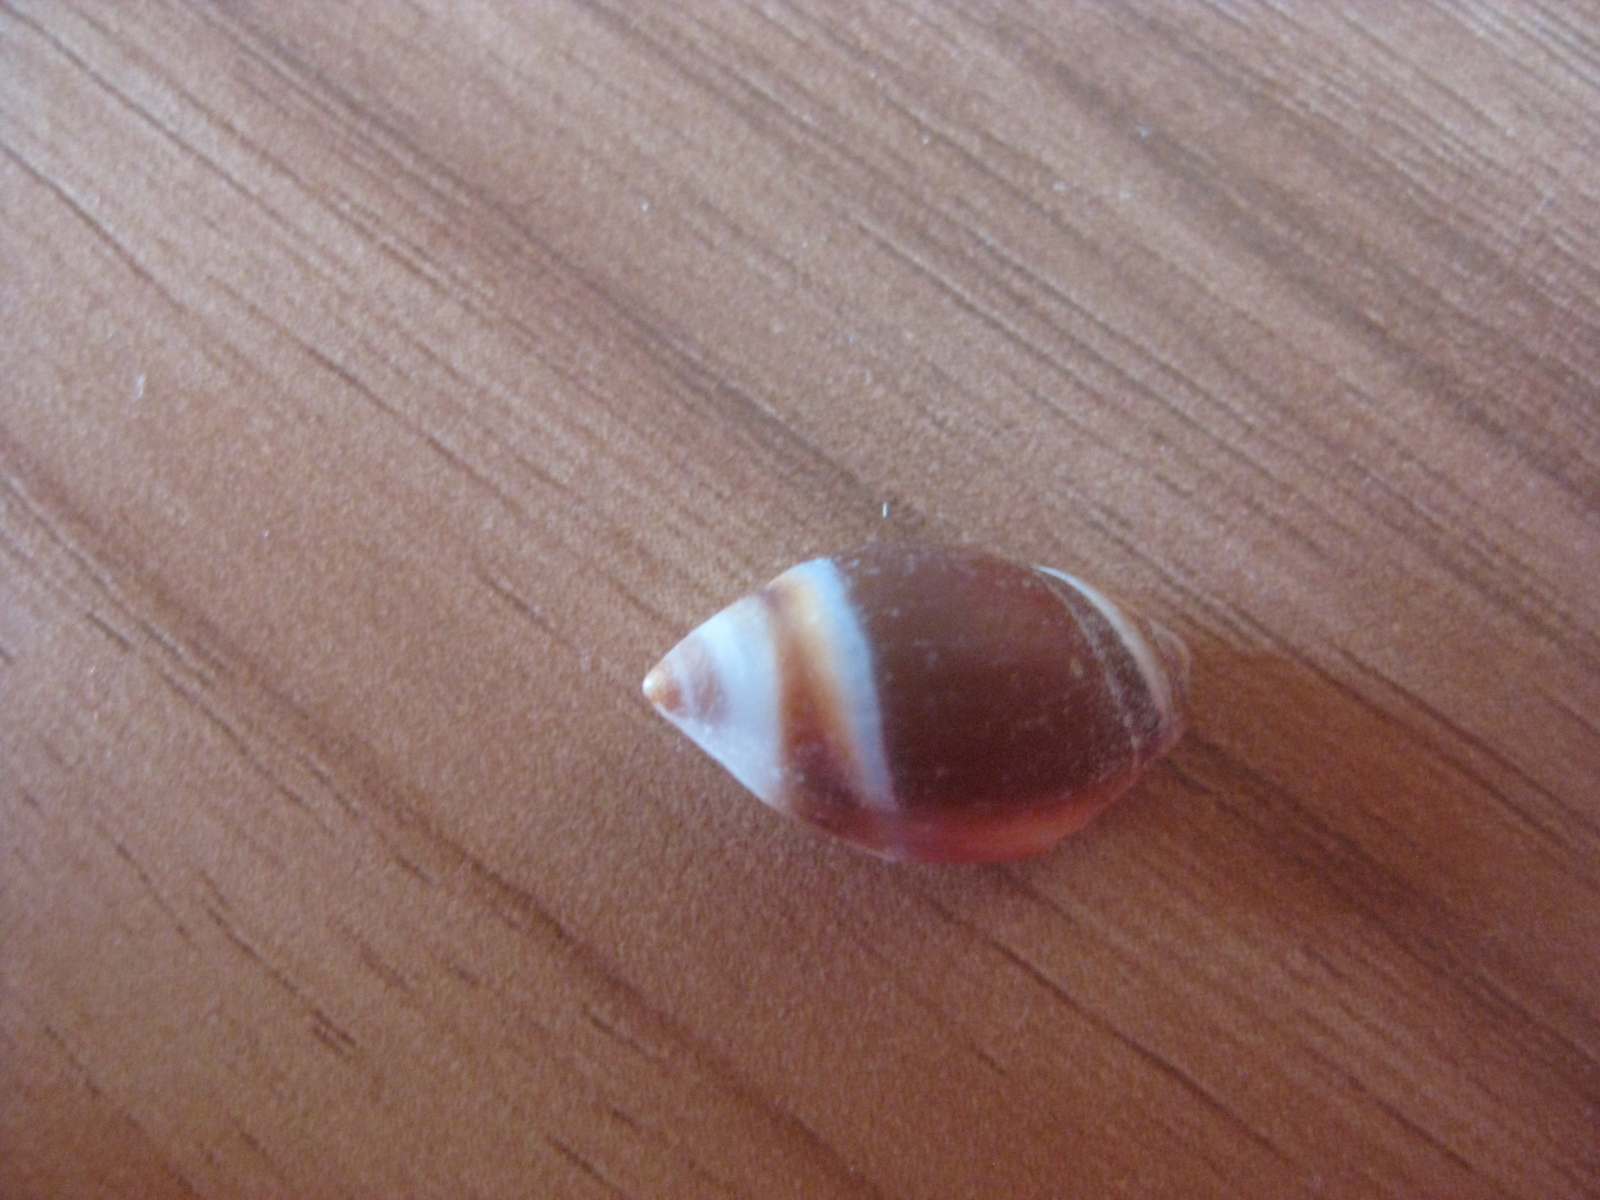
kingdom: Animalia
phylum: Mollusca
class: Gastropoda
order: Neogastropoda
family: Ancillariidae
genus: Amalda
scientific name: Amalda depressa
